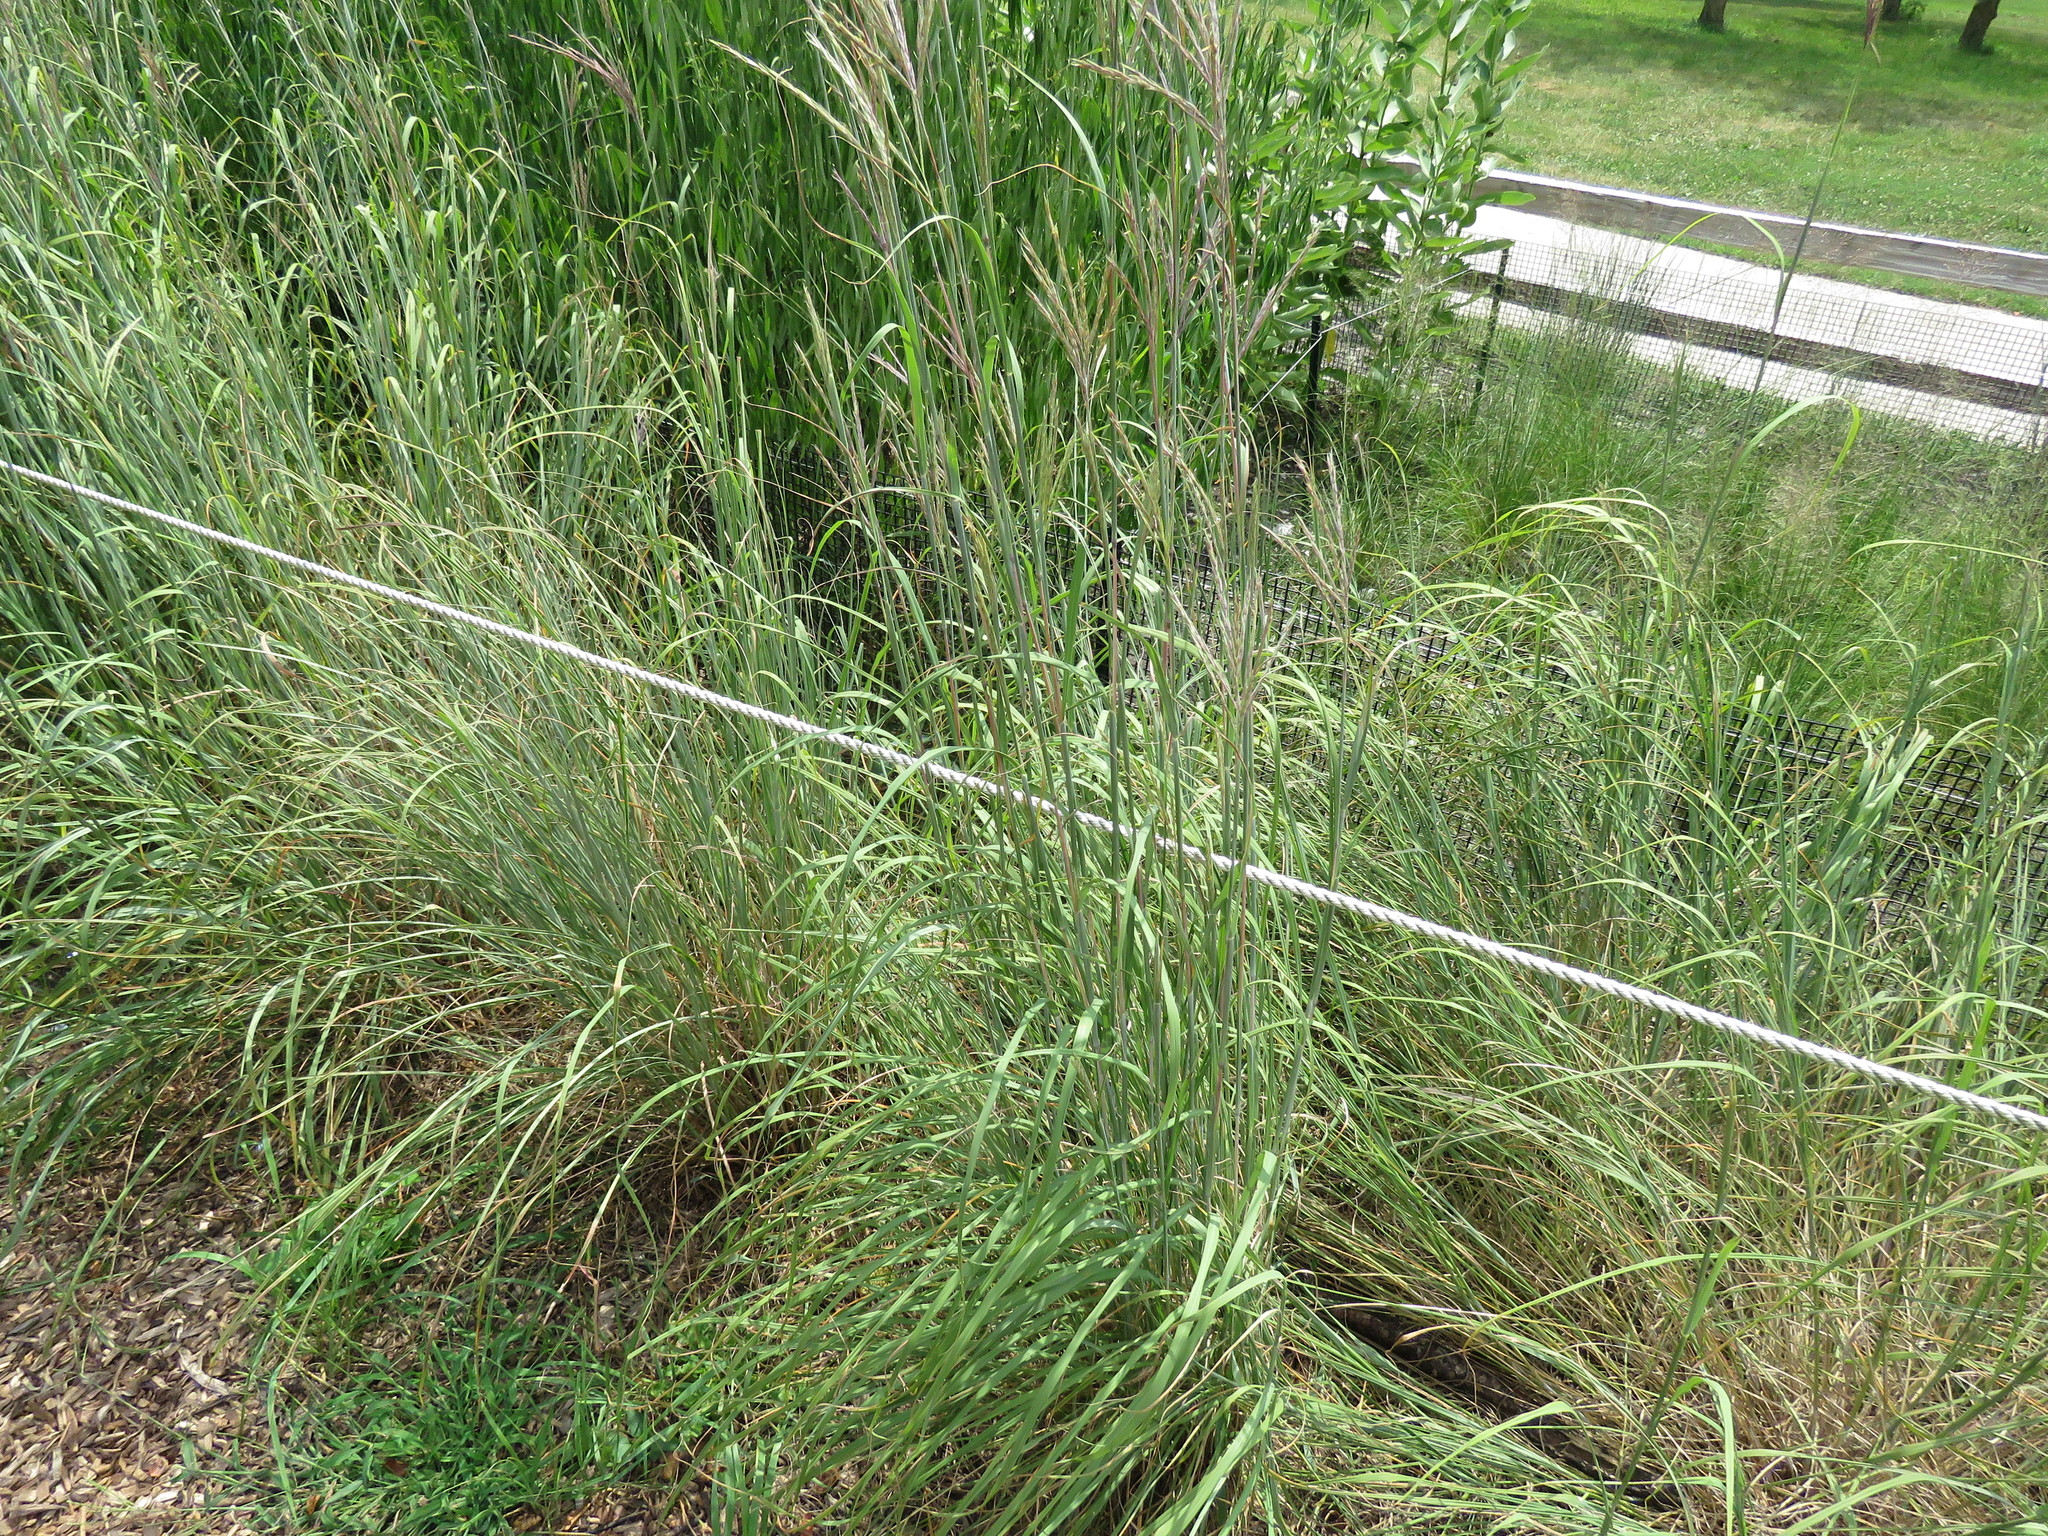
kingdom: Plantae
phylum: Tracheophyta
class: Liliopsida
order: Poales
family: Poaceae
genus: Andropogon
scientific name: Andropogon gerardi
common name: Big bluestem
